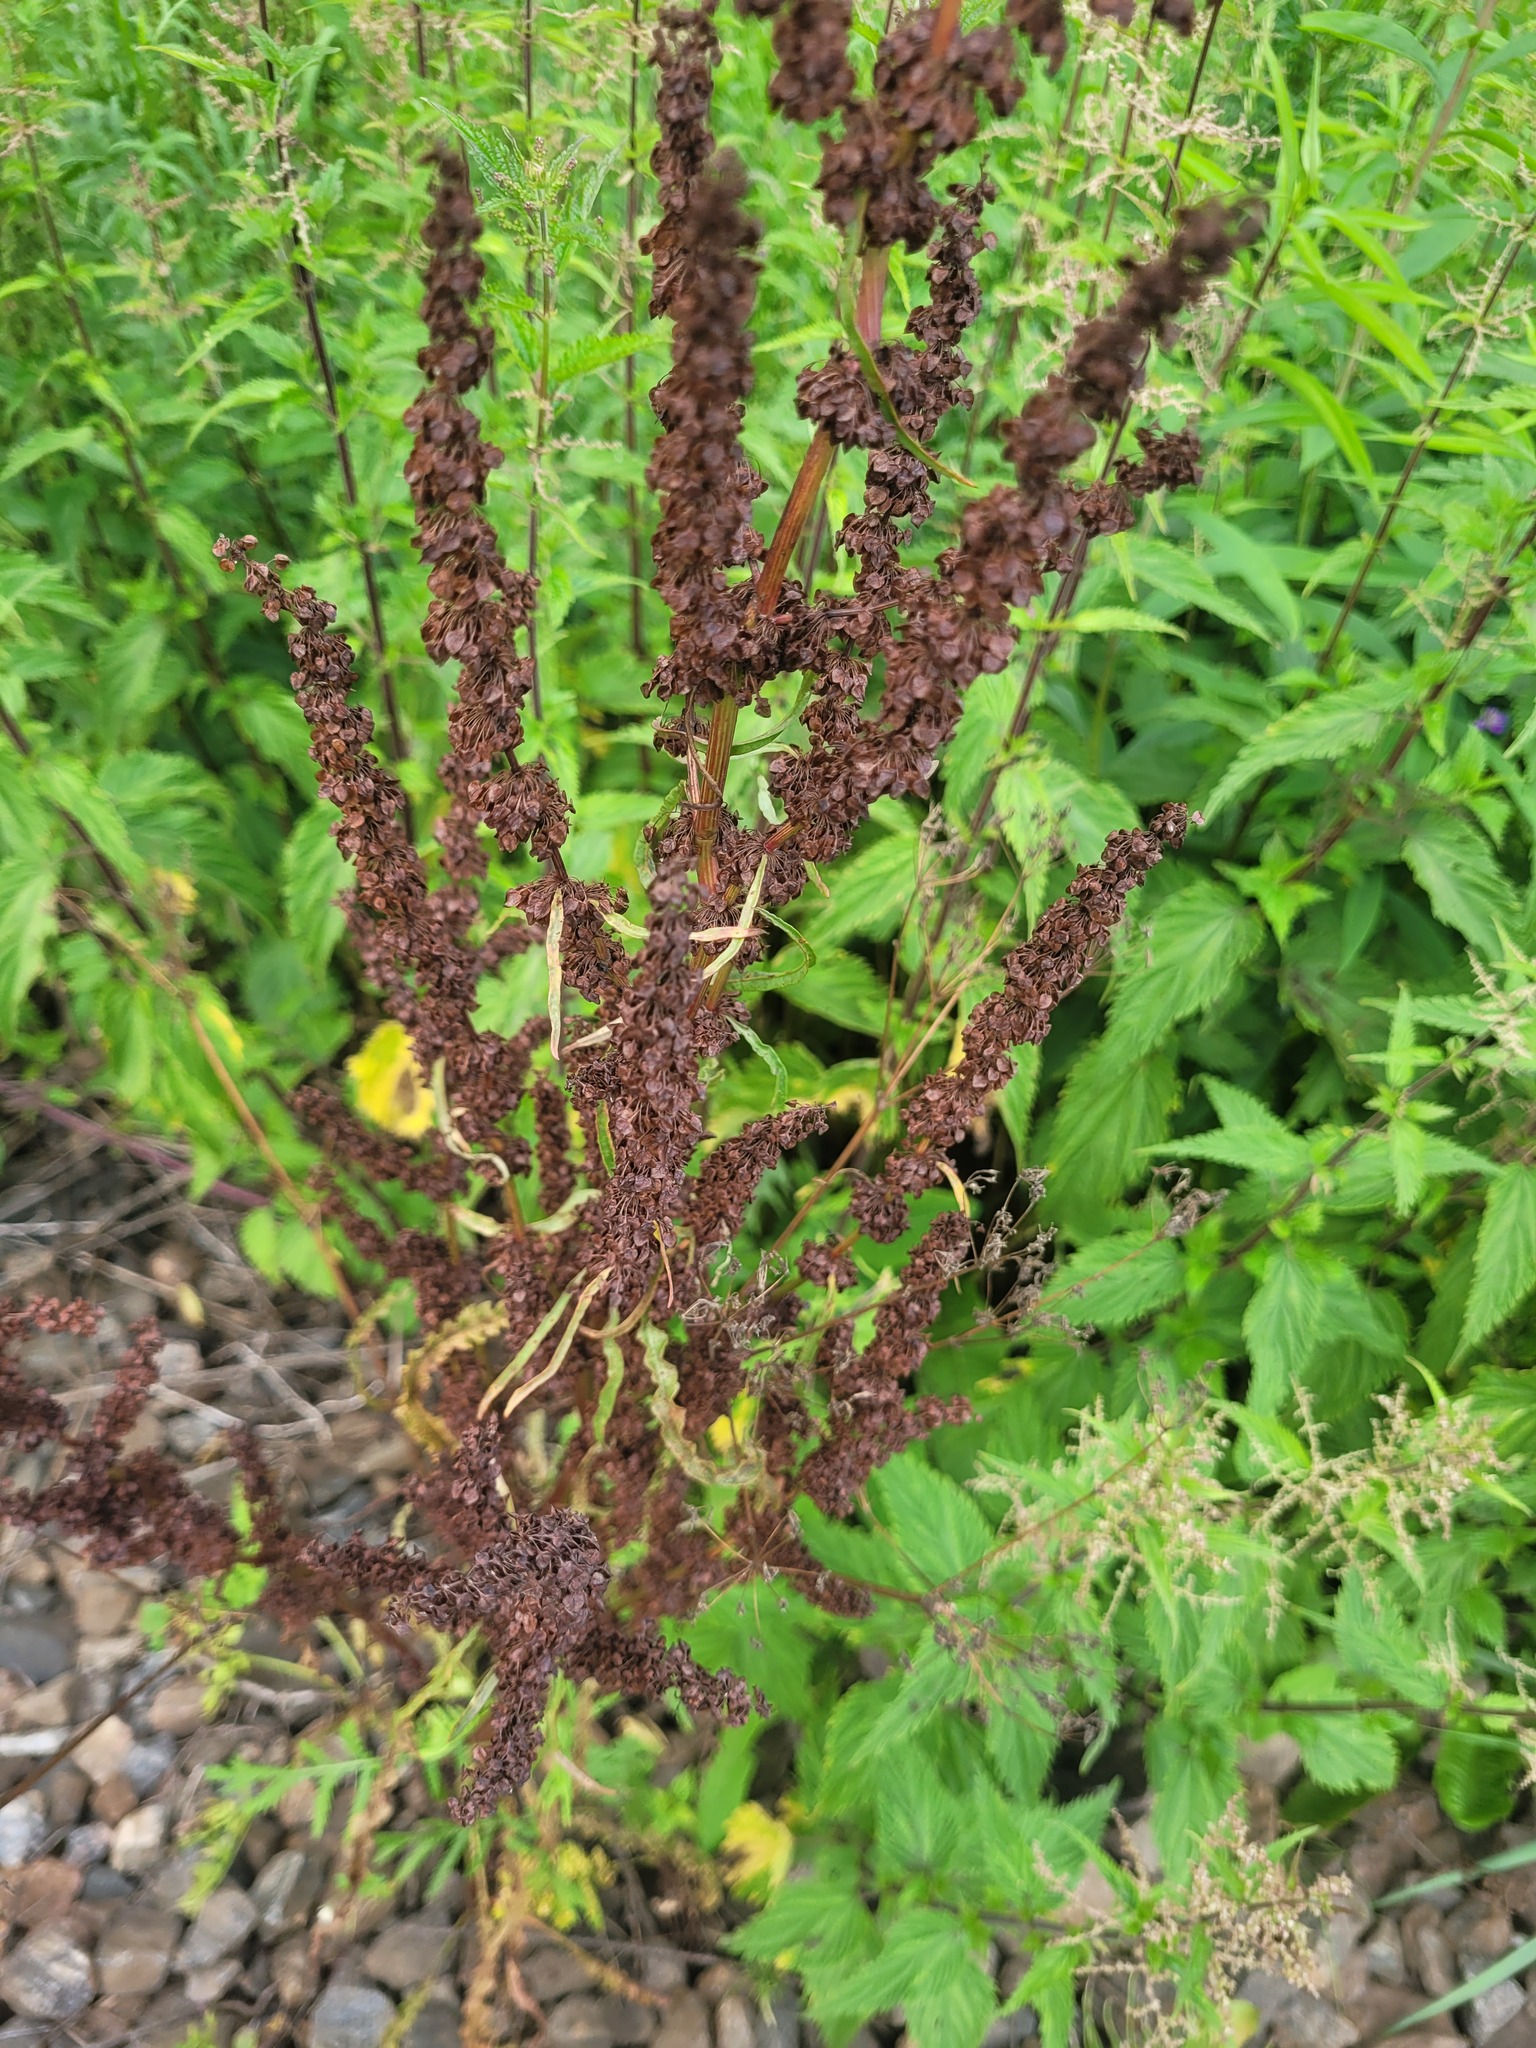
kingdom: Plantae
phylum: Tracheophyta
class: Magnoliopsida
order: Caryophyllales
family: Polygonaceae
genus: Rumex
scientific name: Rumex pseudonatronatus
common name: Field dock
